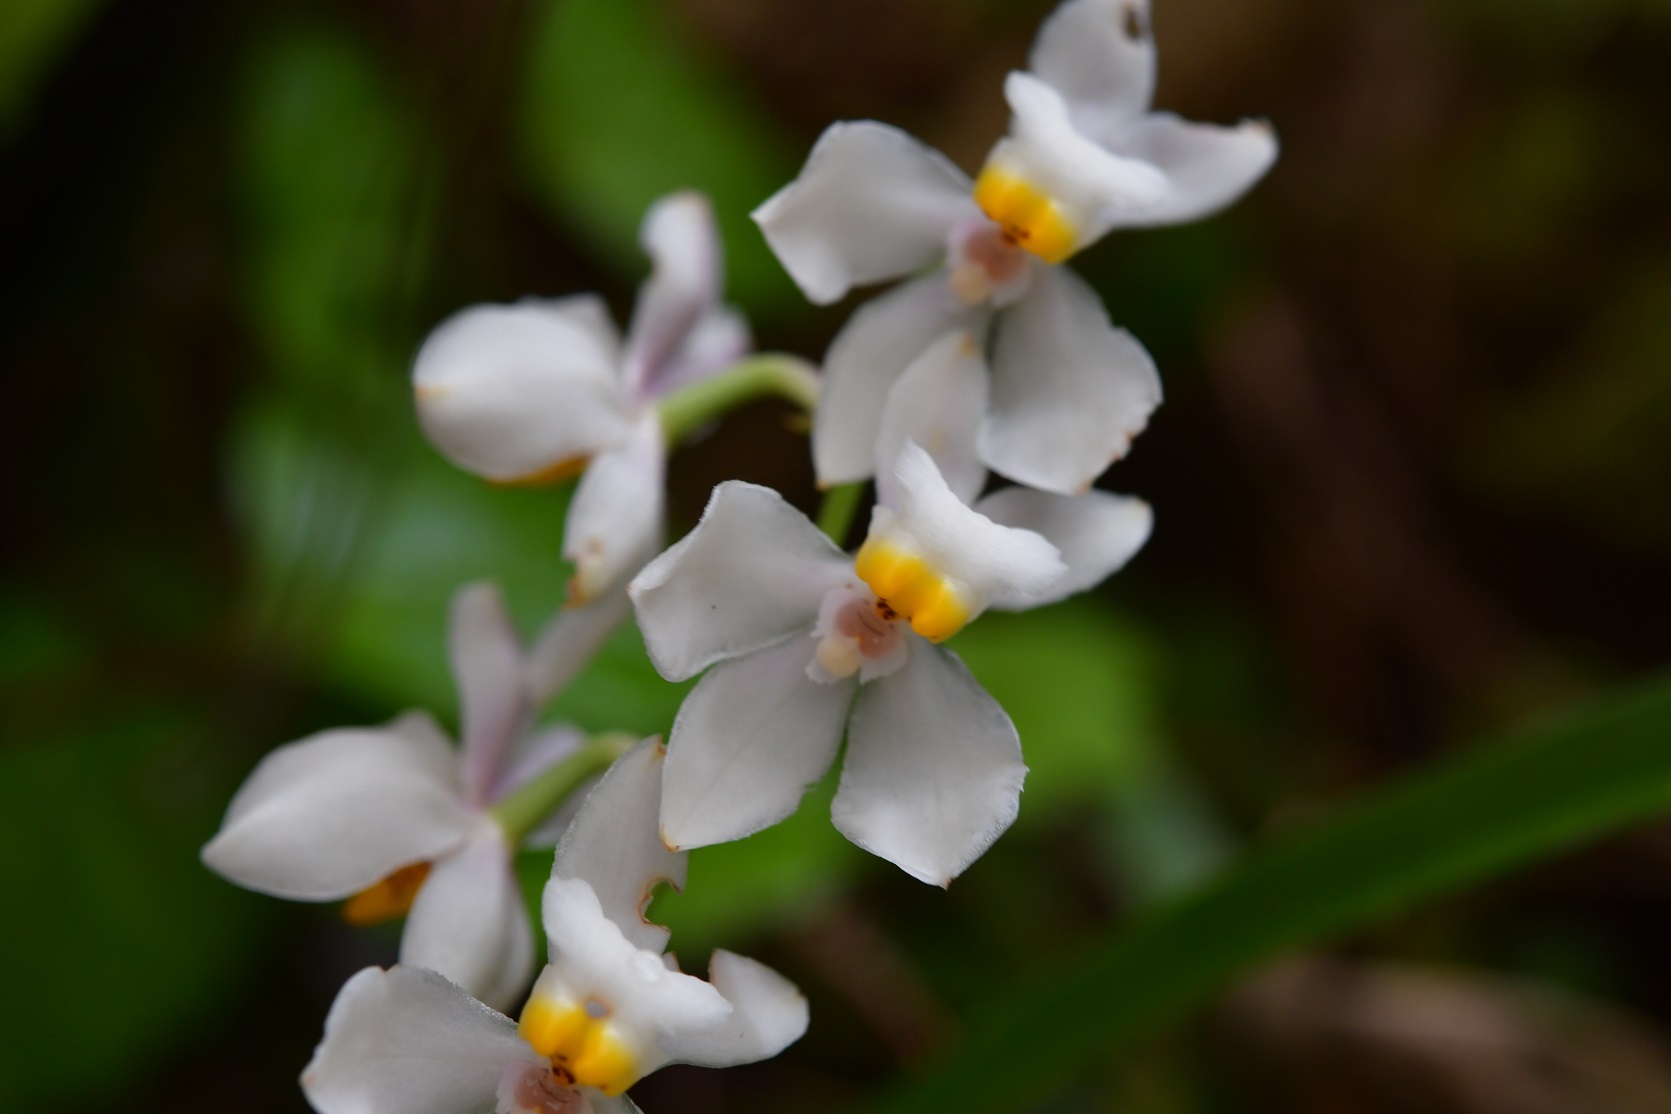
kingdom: Plantae
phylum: Tracheophyta
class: Liliopsida
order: Asparagales
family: Orchidaceae
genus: Cuitlauzina
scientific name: Cuitlauzina pulchella
